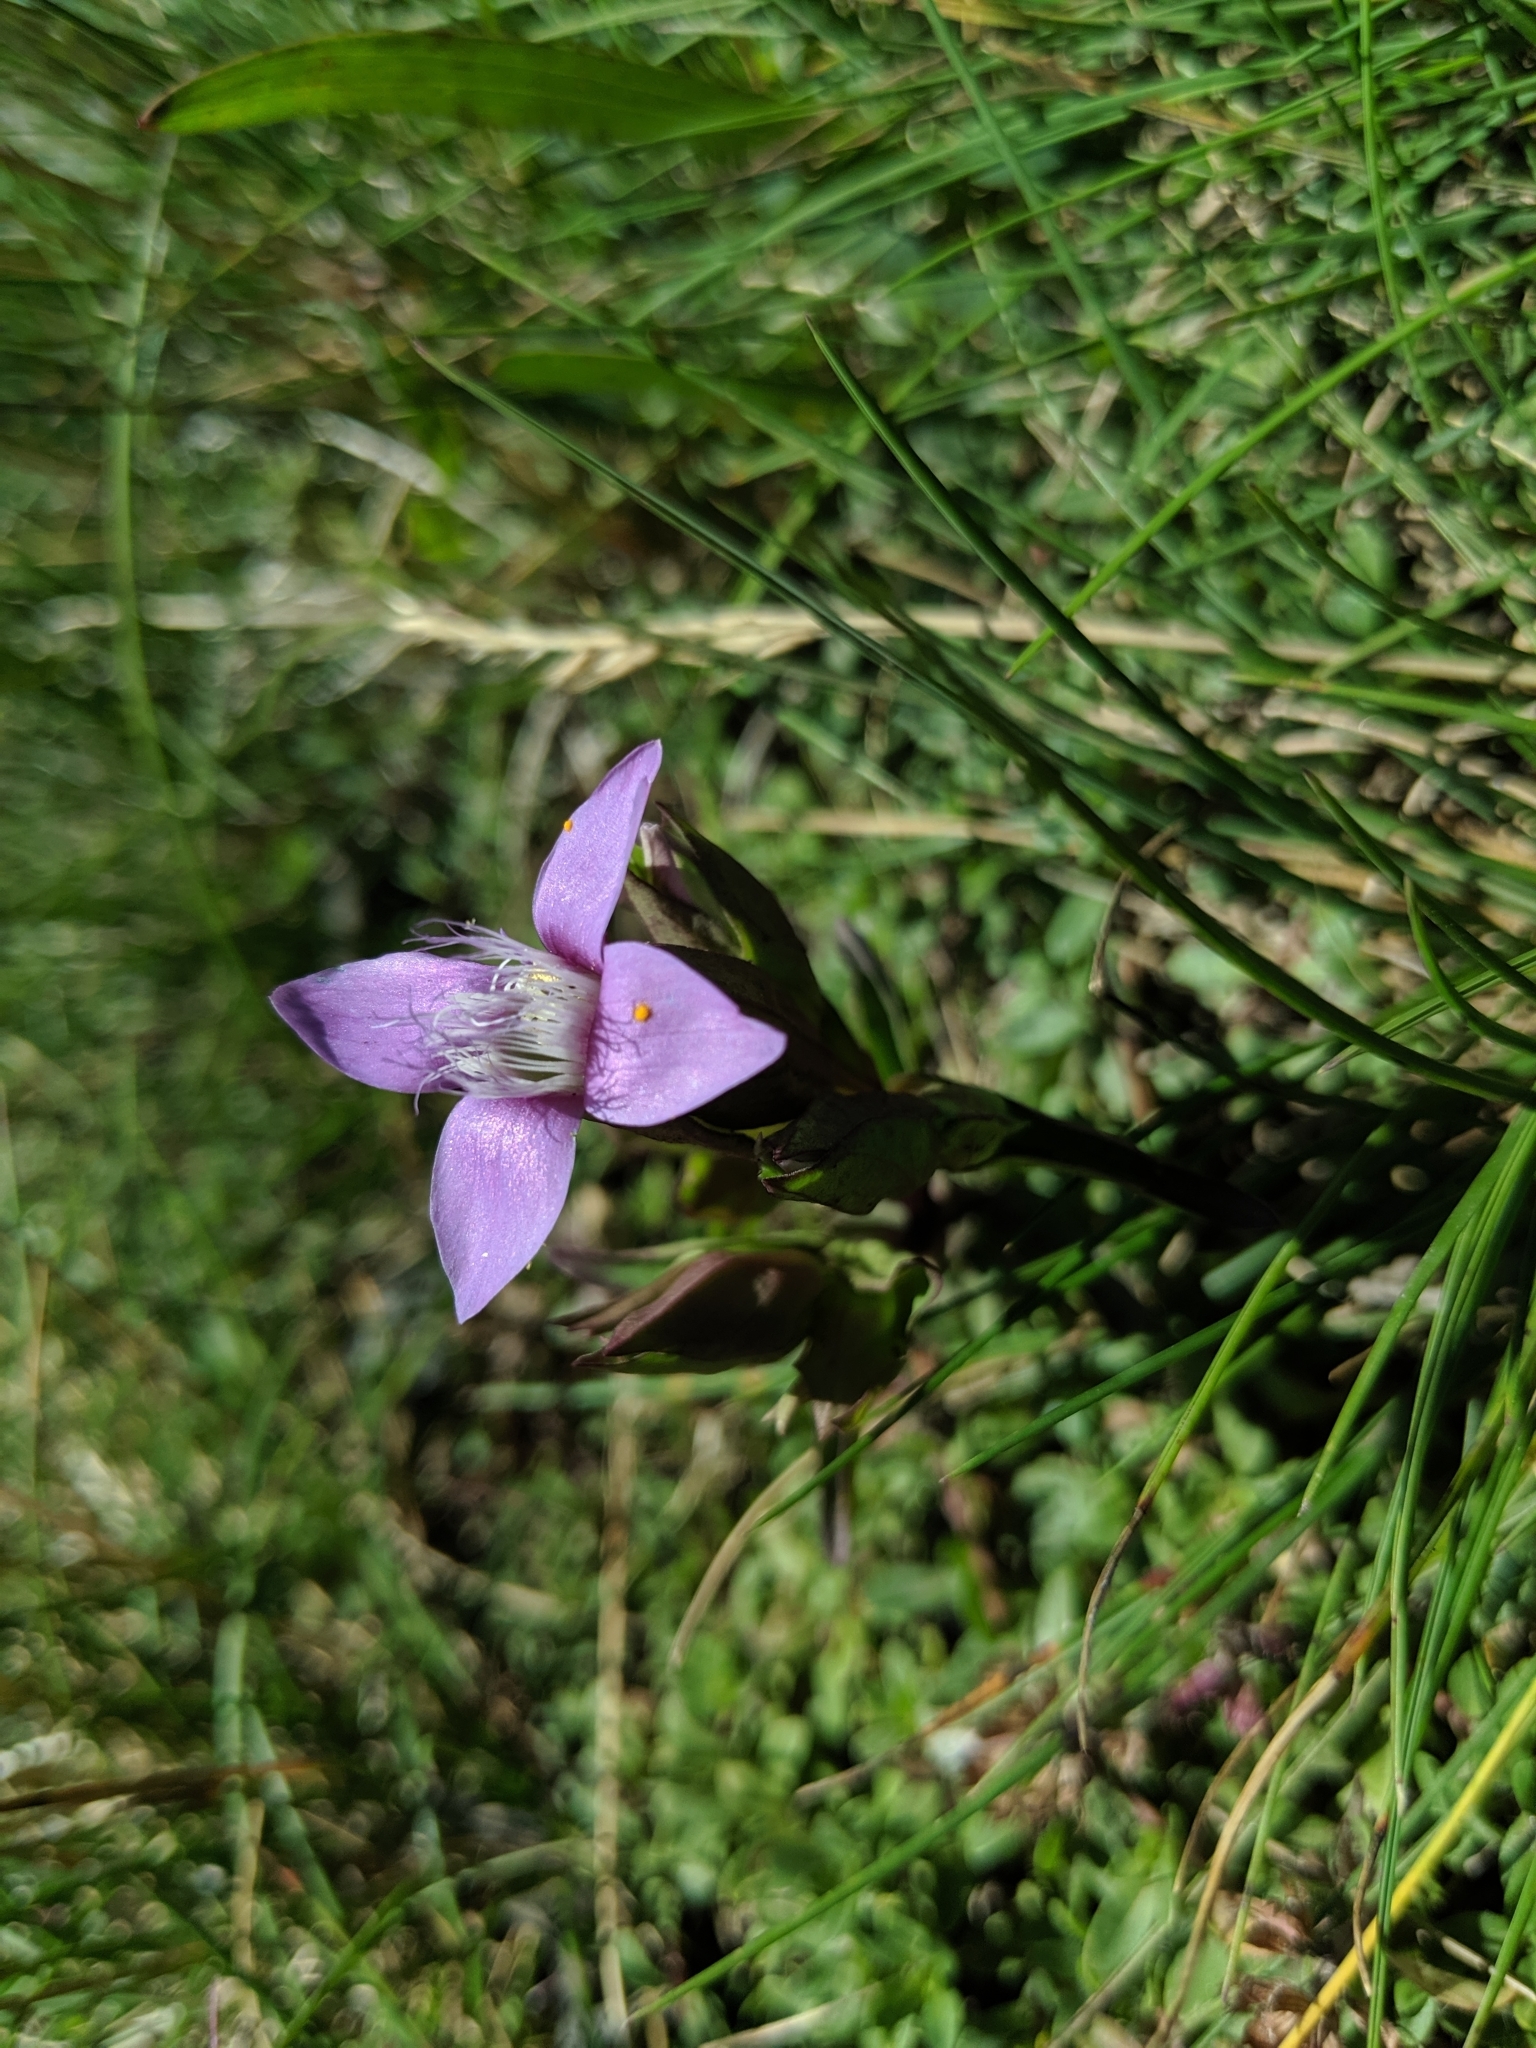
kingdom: Plantae
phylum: Tracheophyta
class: Magnoliopsida
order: Gentianales
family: Gentianaceae
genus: Gentianella
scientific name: Gentianella campestris
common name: Field gentian
